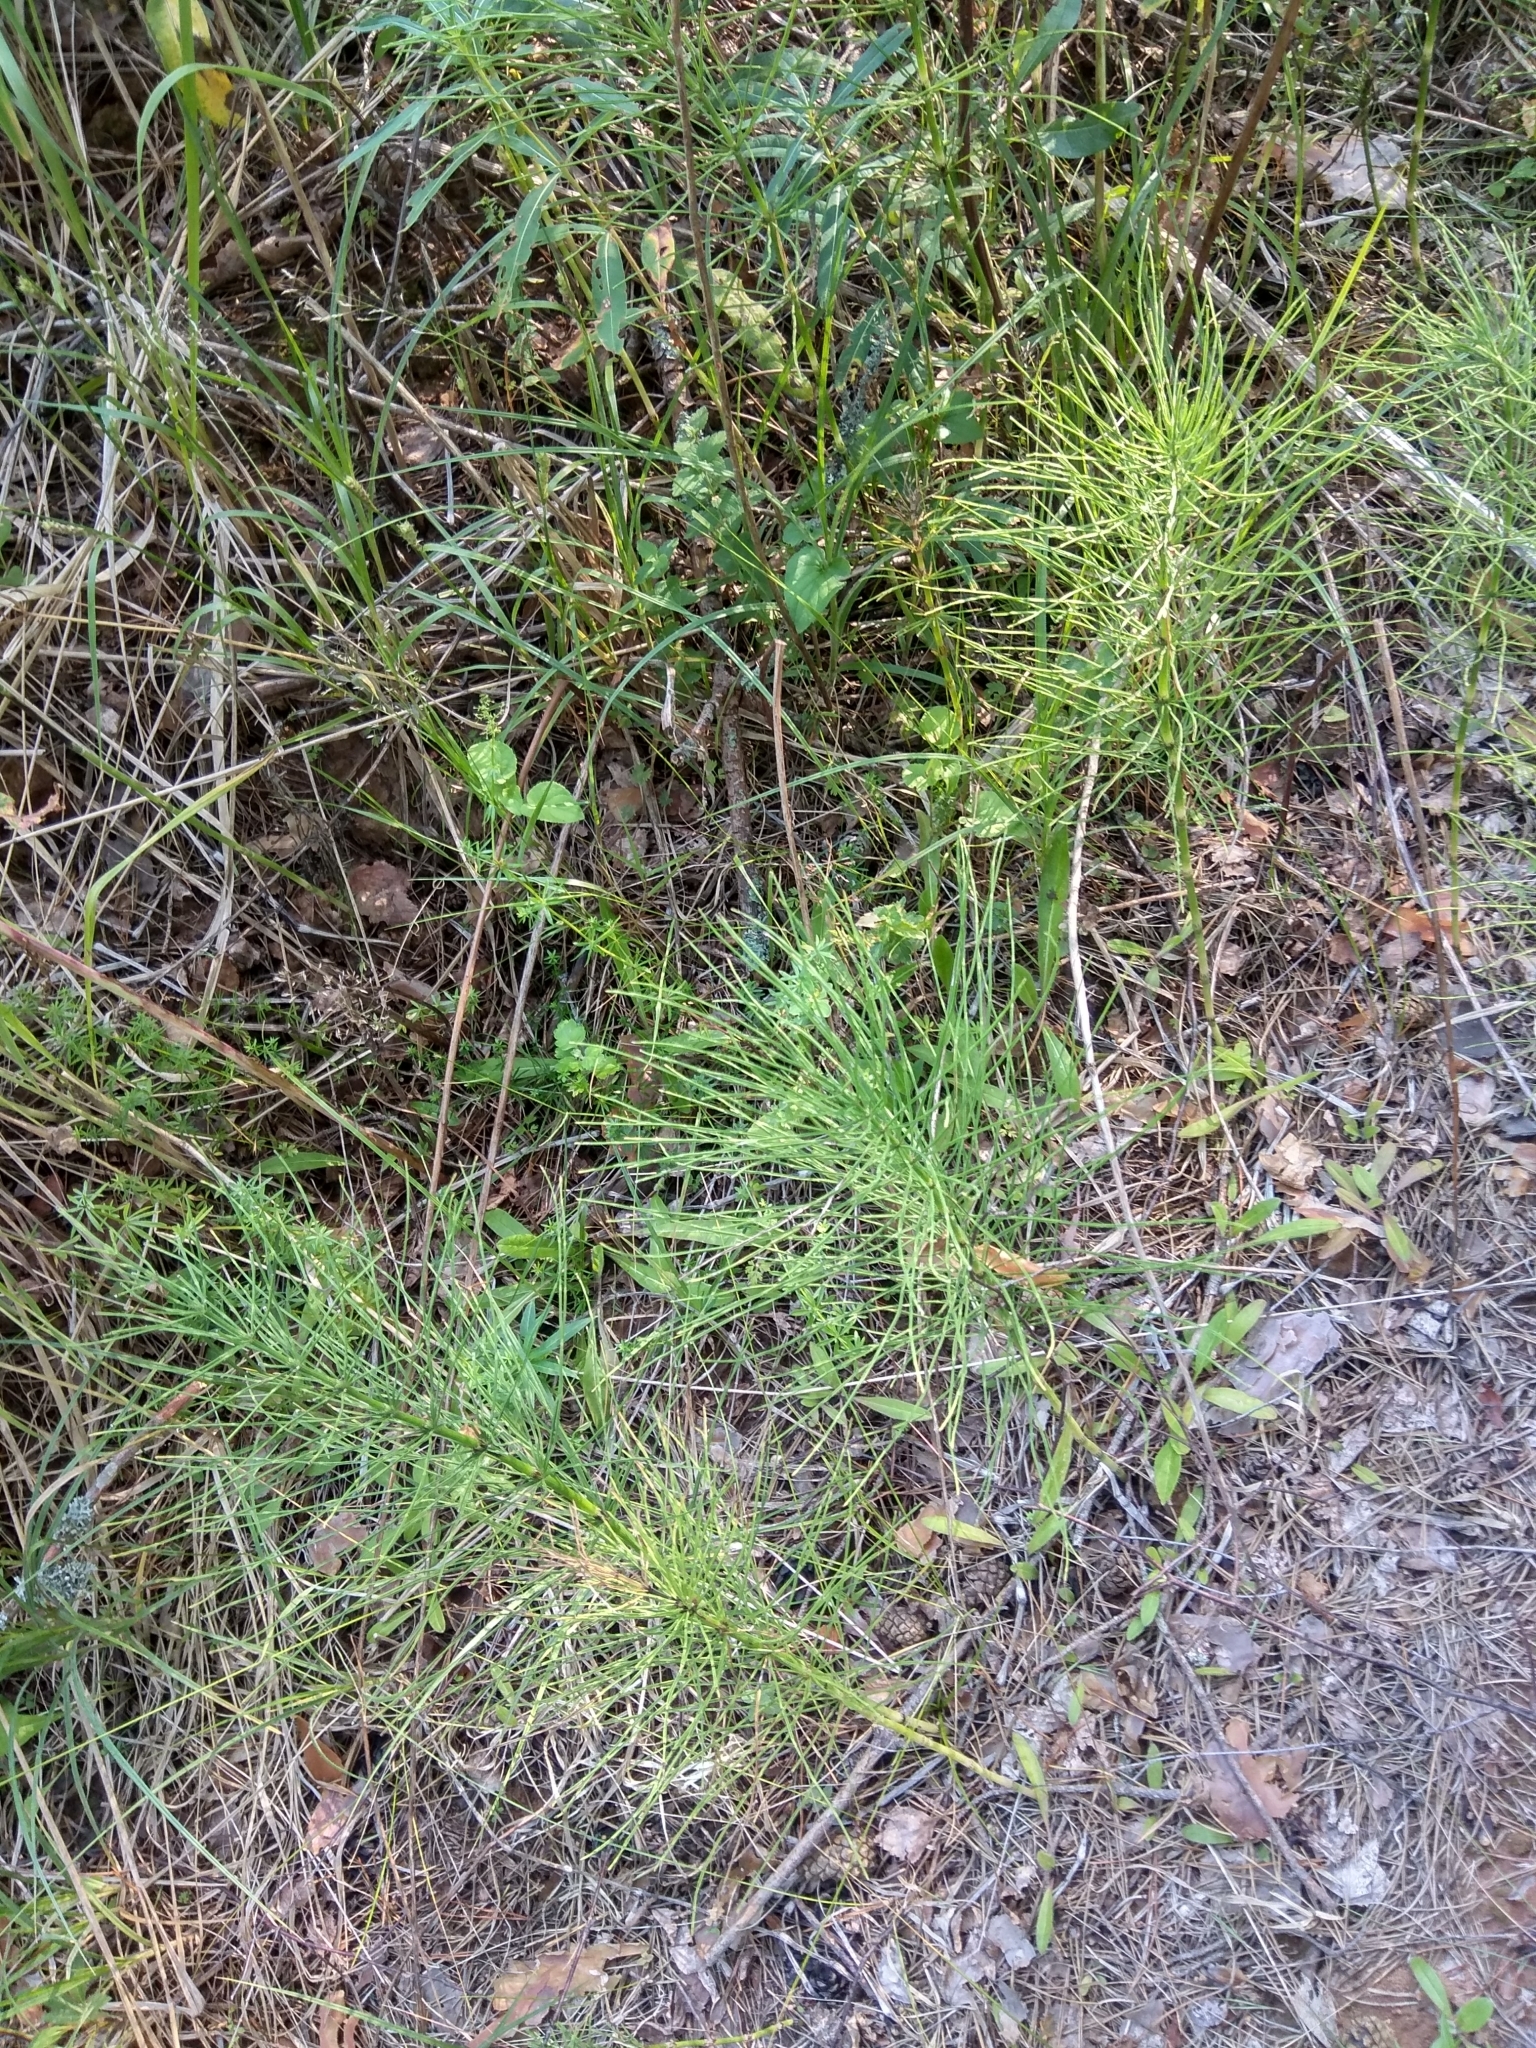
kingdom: Plantae
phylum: Tracheophyta
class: Polypodiopsida
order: Equisetales
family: Equisetaceae
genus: Equisetum
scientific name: Equisetum arvense
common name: Field horsetail
